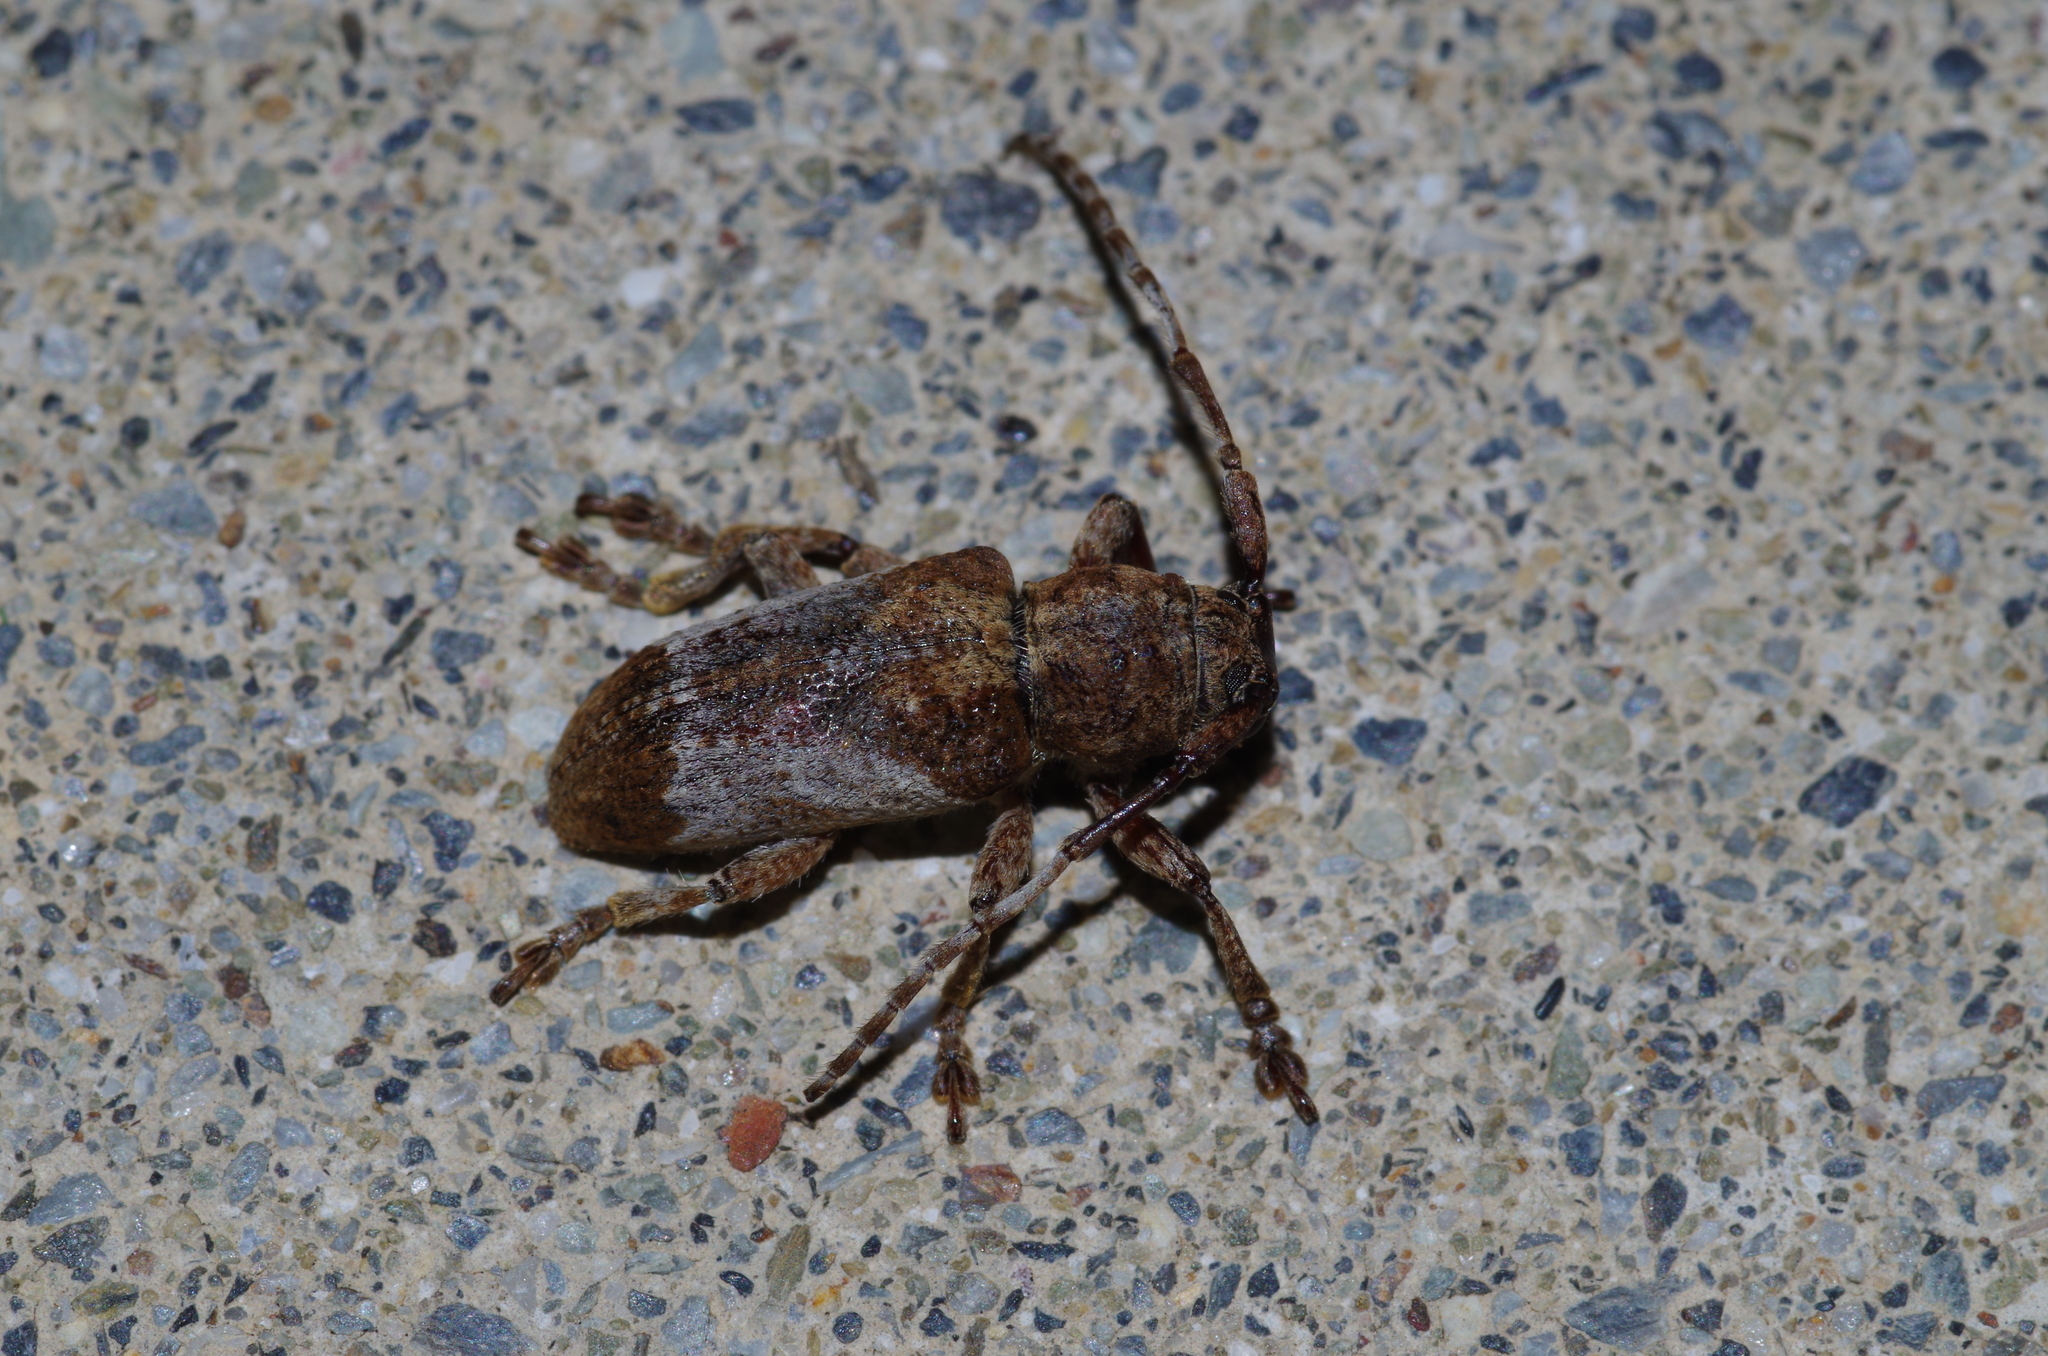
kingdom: Animalia
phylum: Arthropoda
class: Insecta
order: Coleoptera
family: Cerambycidae
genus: Pterolophia
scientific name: Pterolophia annulata
